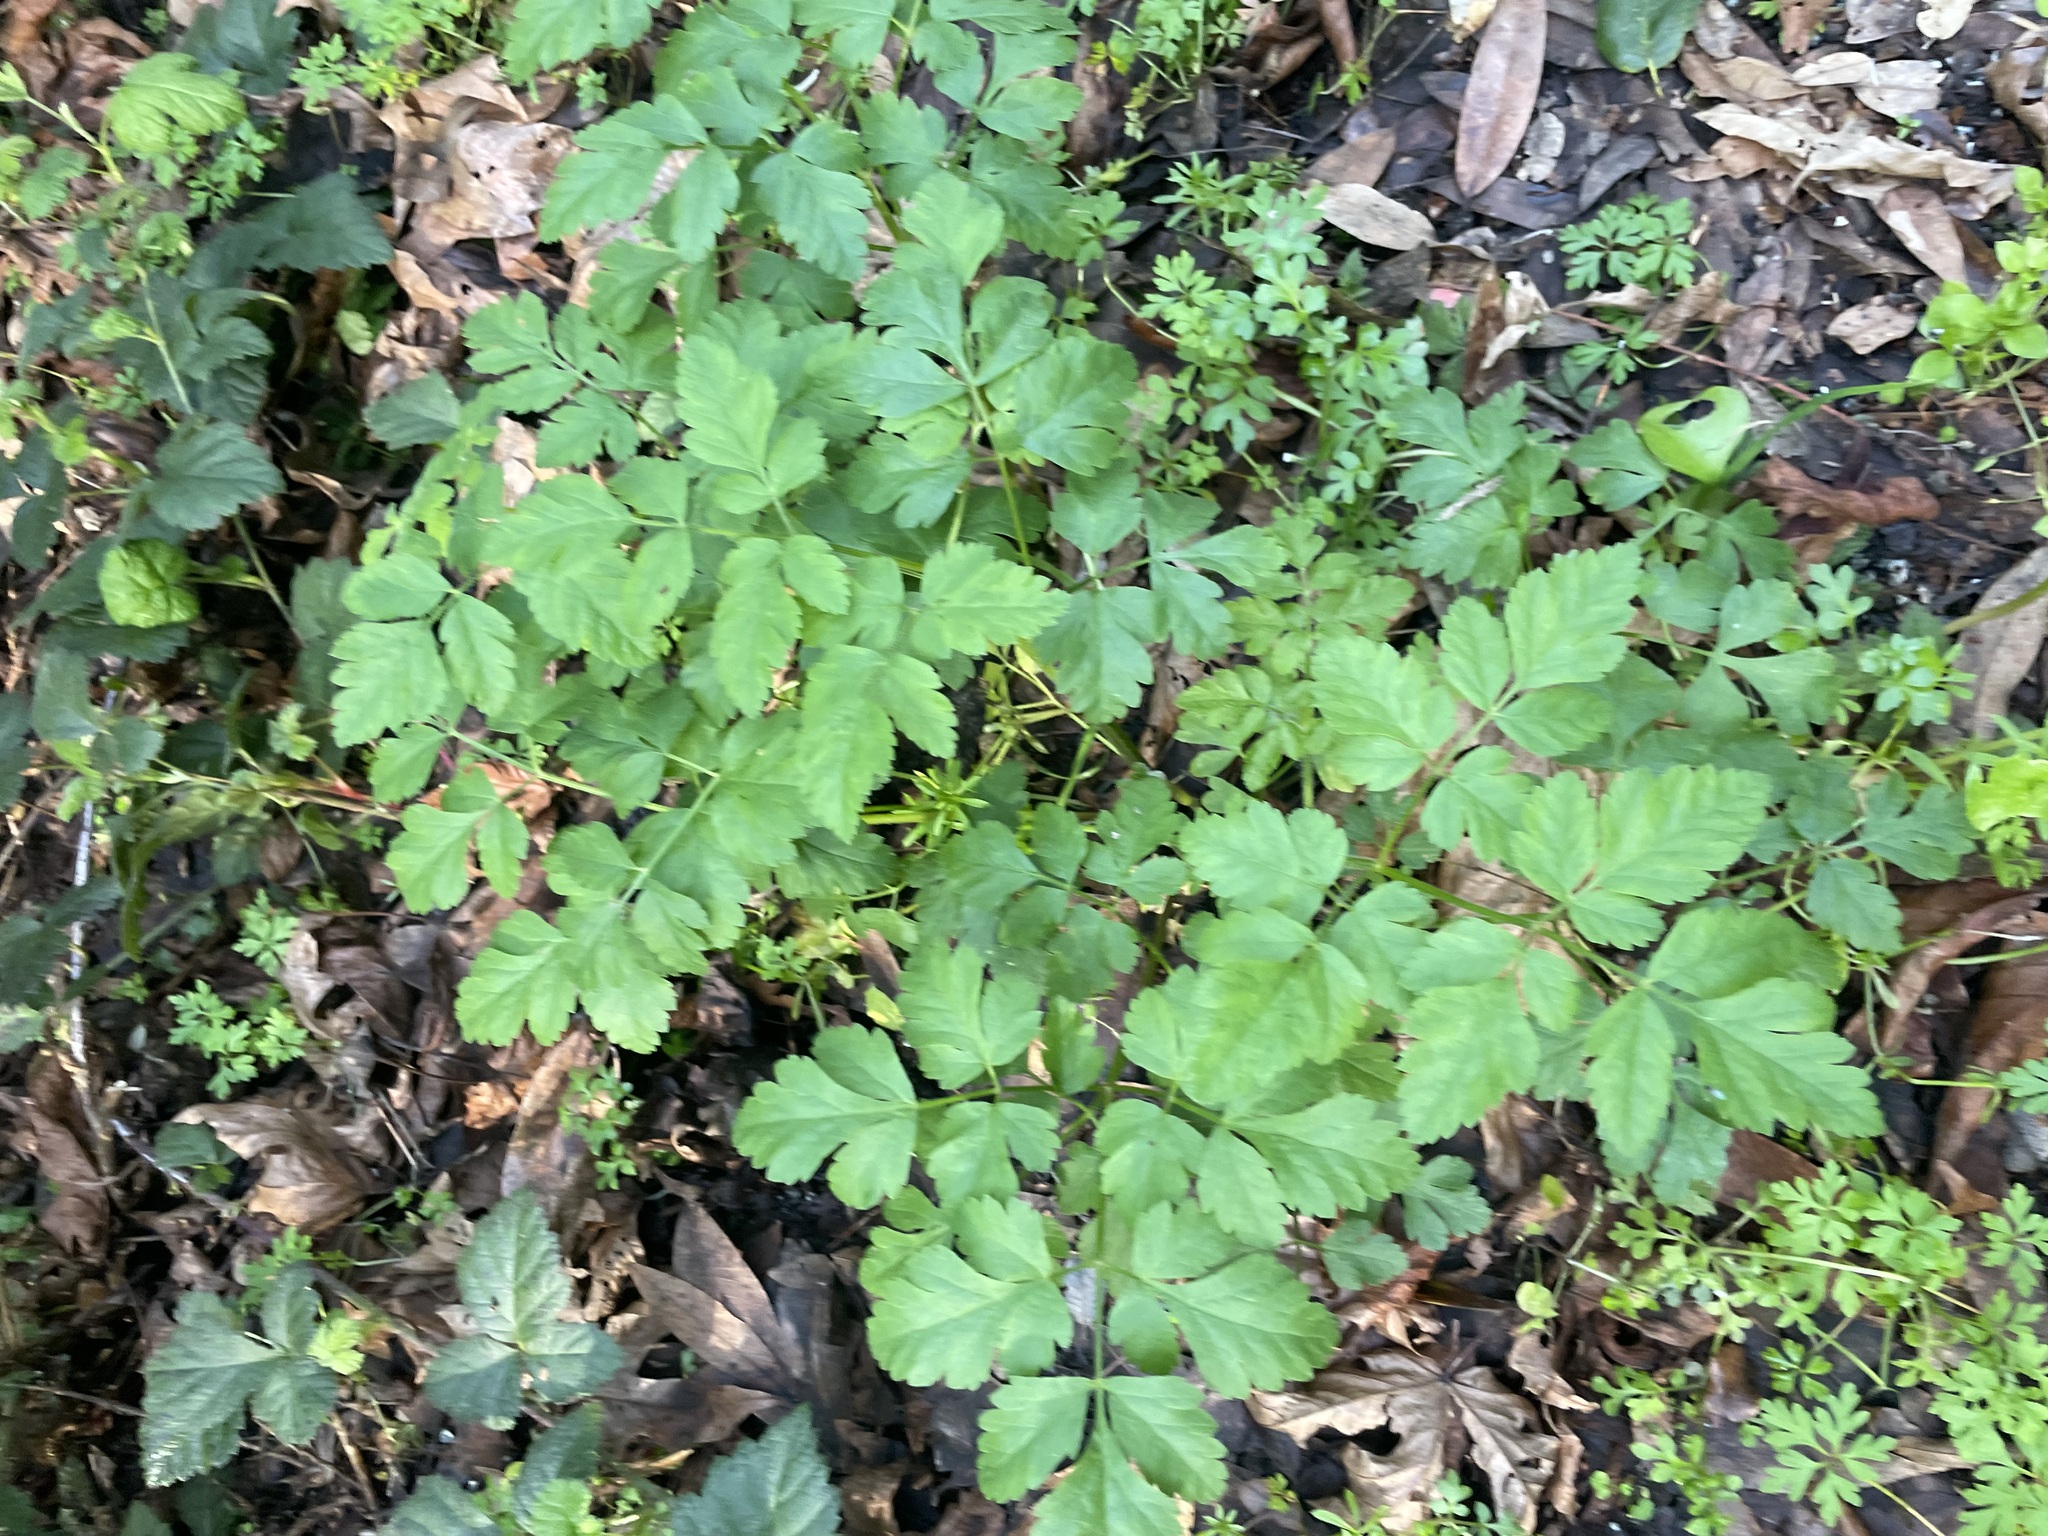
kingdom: Plantae
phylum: Tracheophyta
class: Magnoliopsida
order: Apiales
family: Apiaceae
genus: Osmorhiza
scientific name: Osmorhiza berteroi
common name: Mountain sweet cicely
